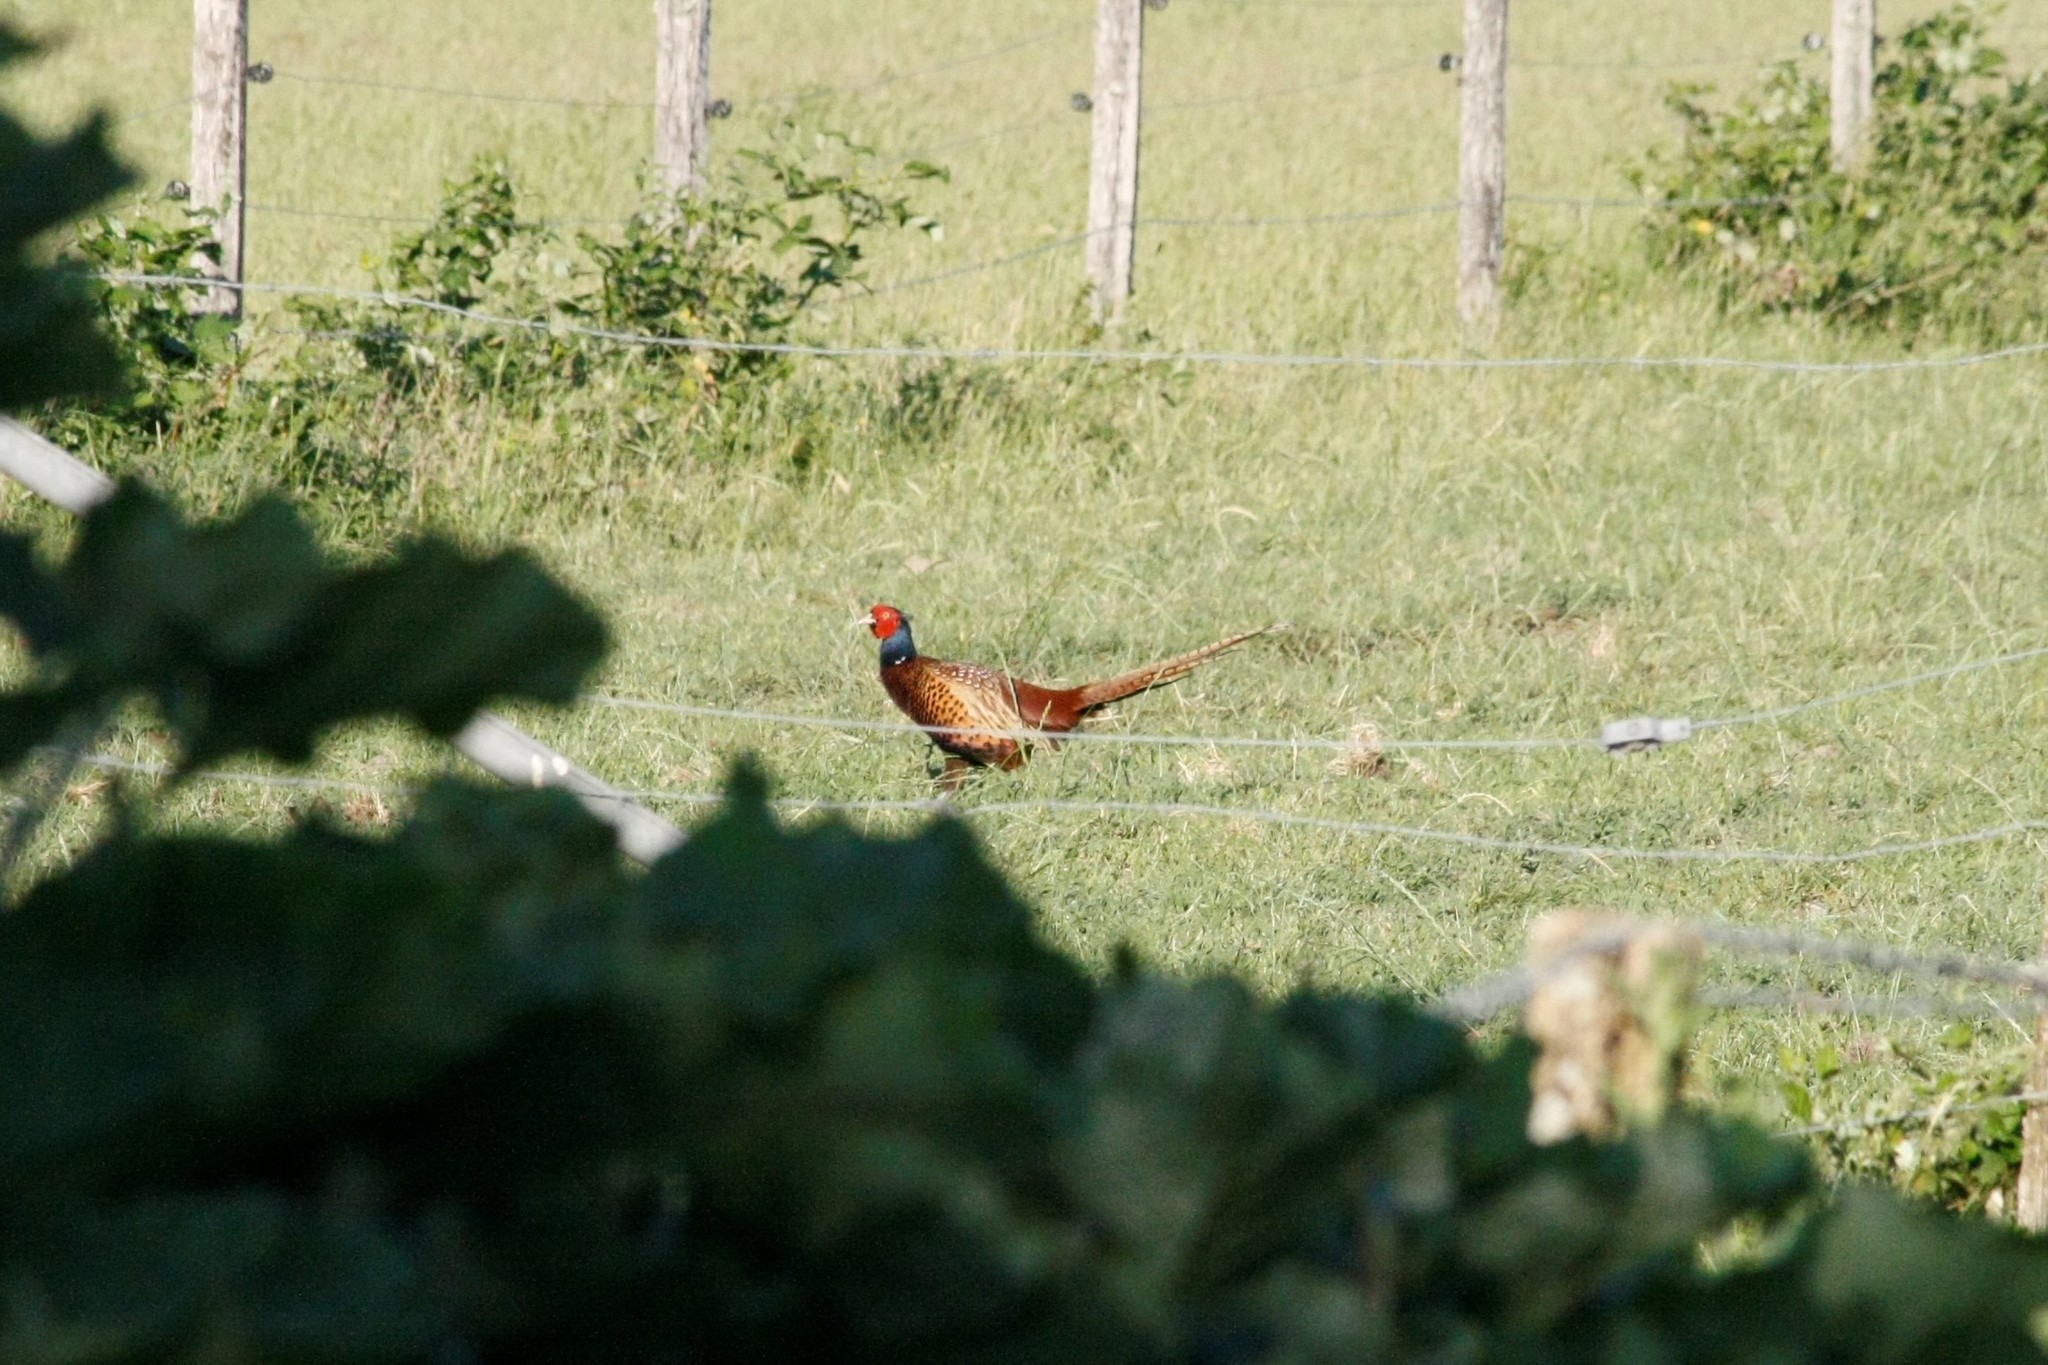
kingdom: Animalia
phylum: Chordata
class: Aves
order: Galliformes
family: Phasianidae
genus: Phasianus
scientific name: Phasianus colchicus
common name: Common pheasant
